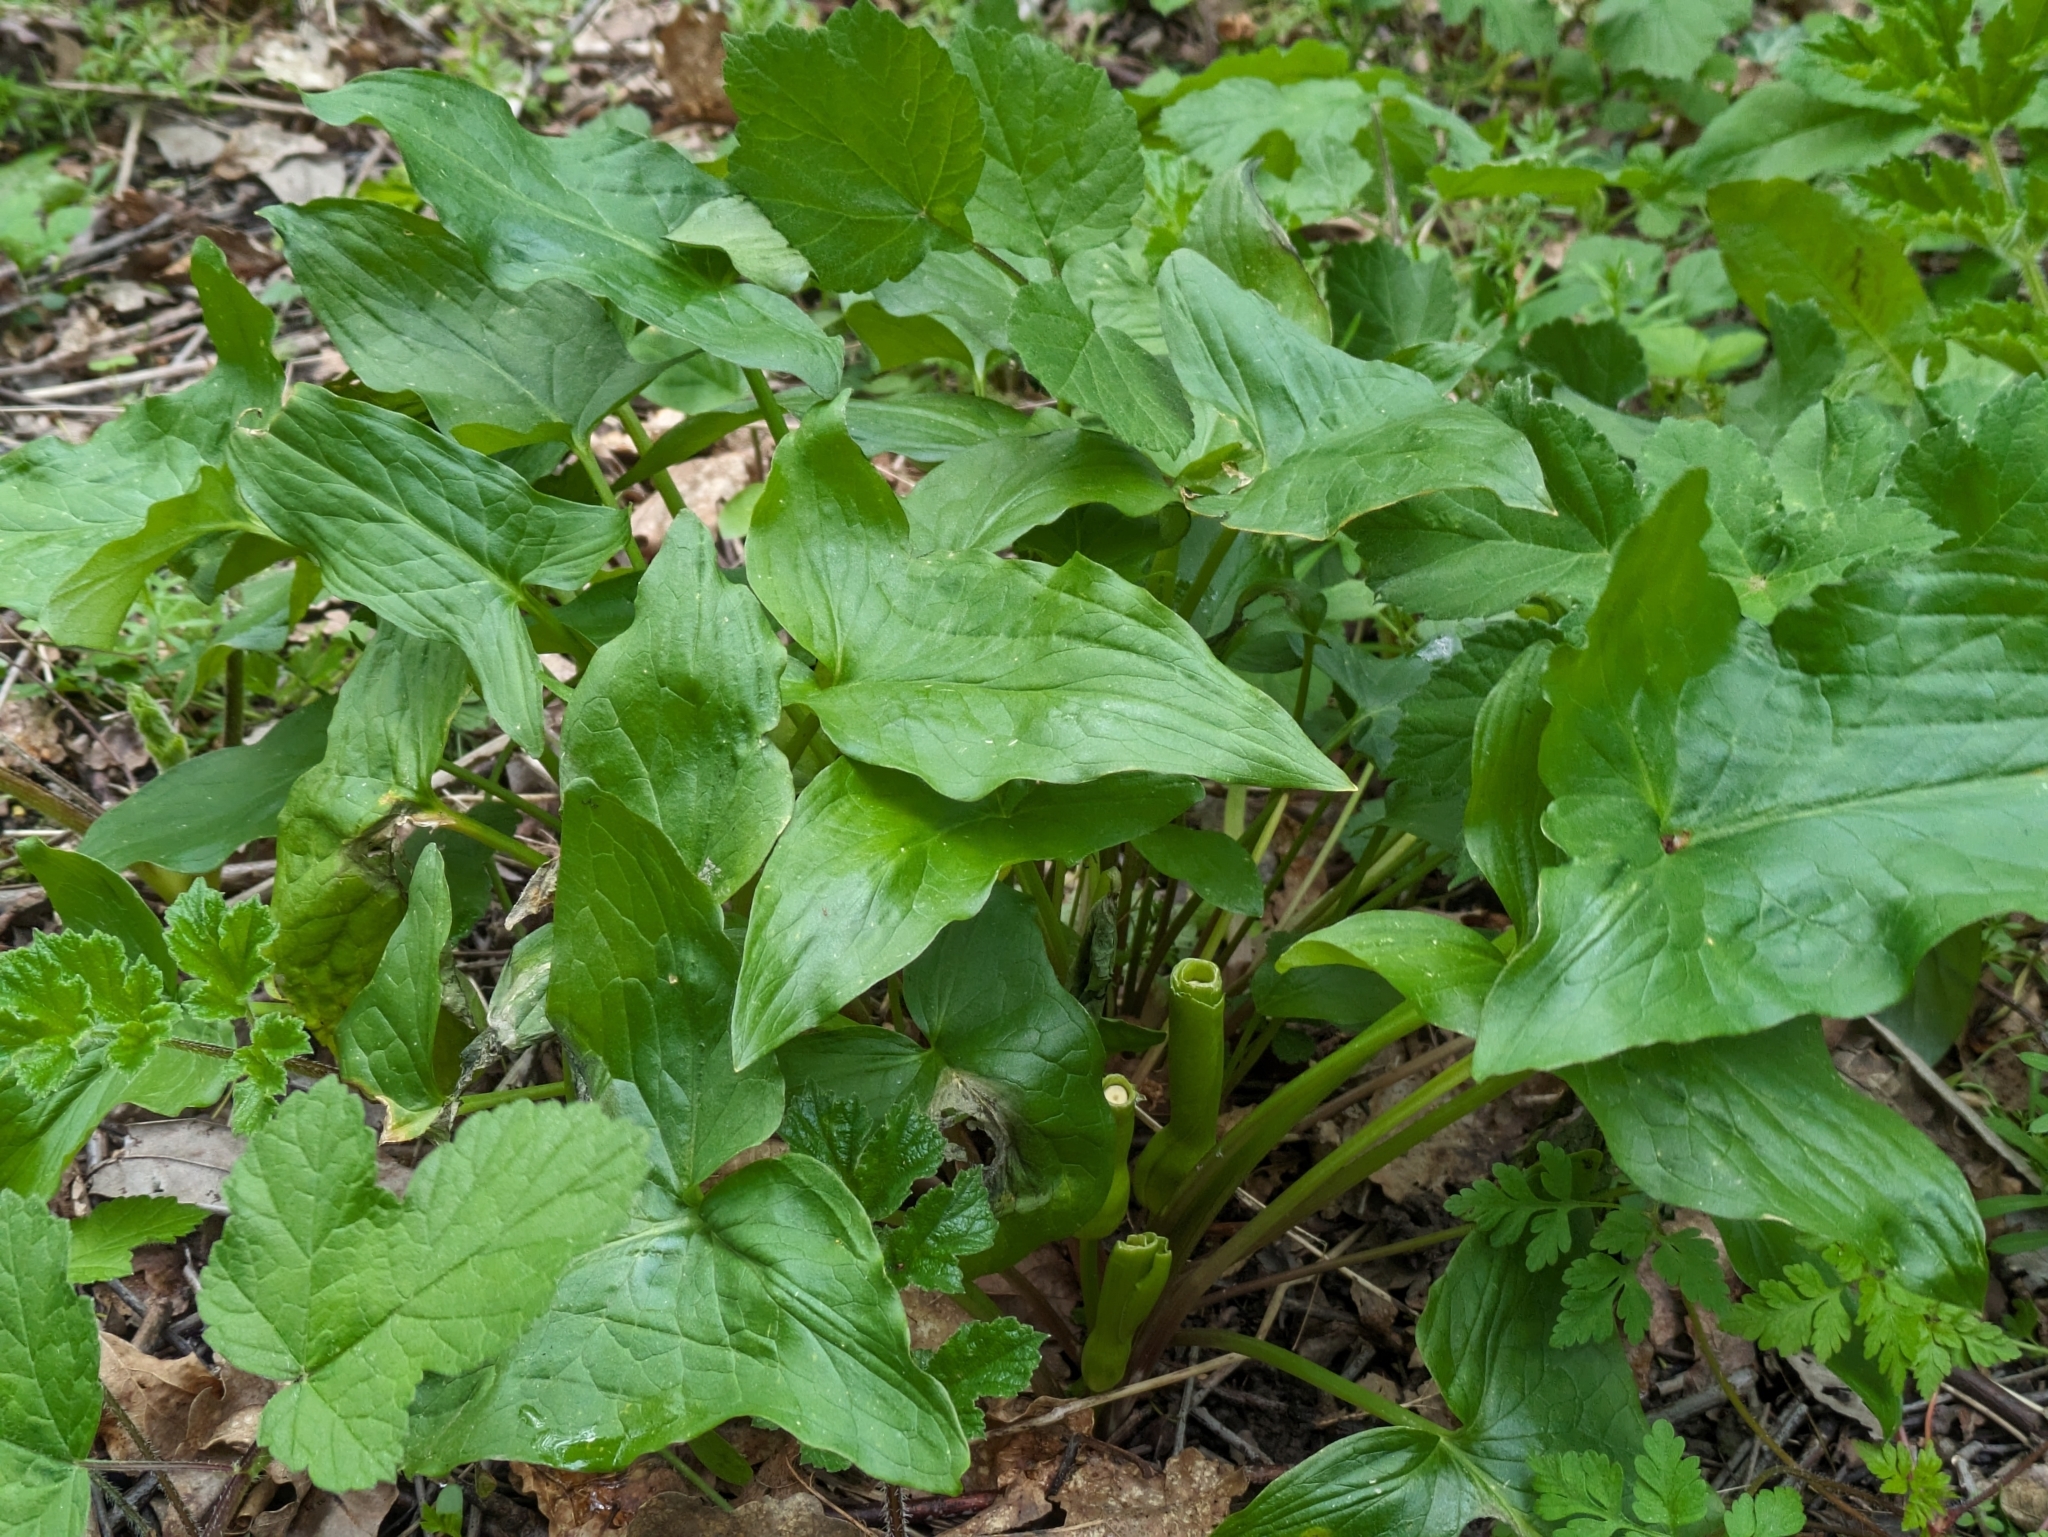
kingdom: Plantae
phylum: Tracheophyta
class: Liliopsida
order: Alismatales
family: Araceae
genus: Arum
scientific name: Arum maculatum
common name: Lords-and-ladies
